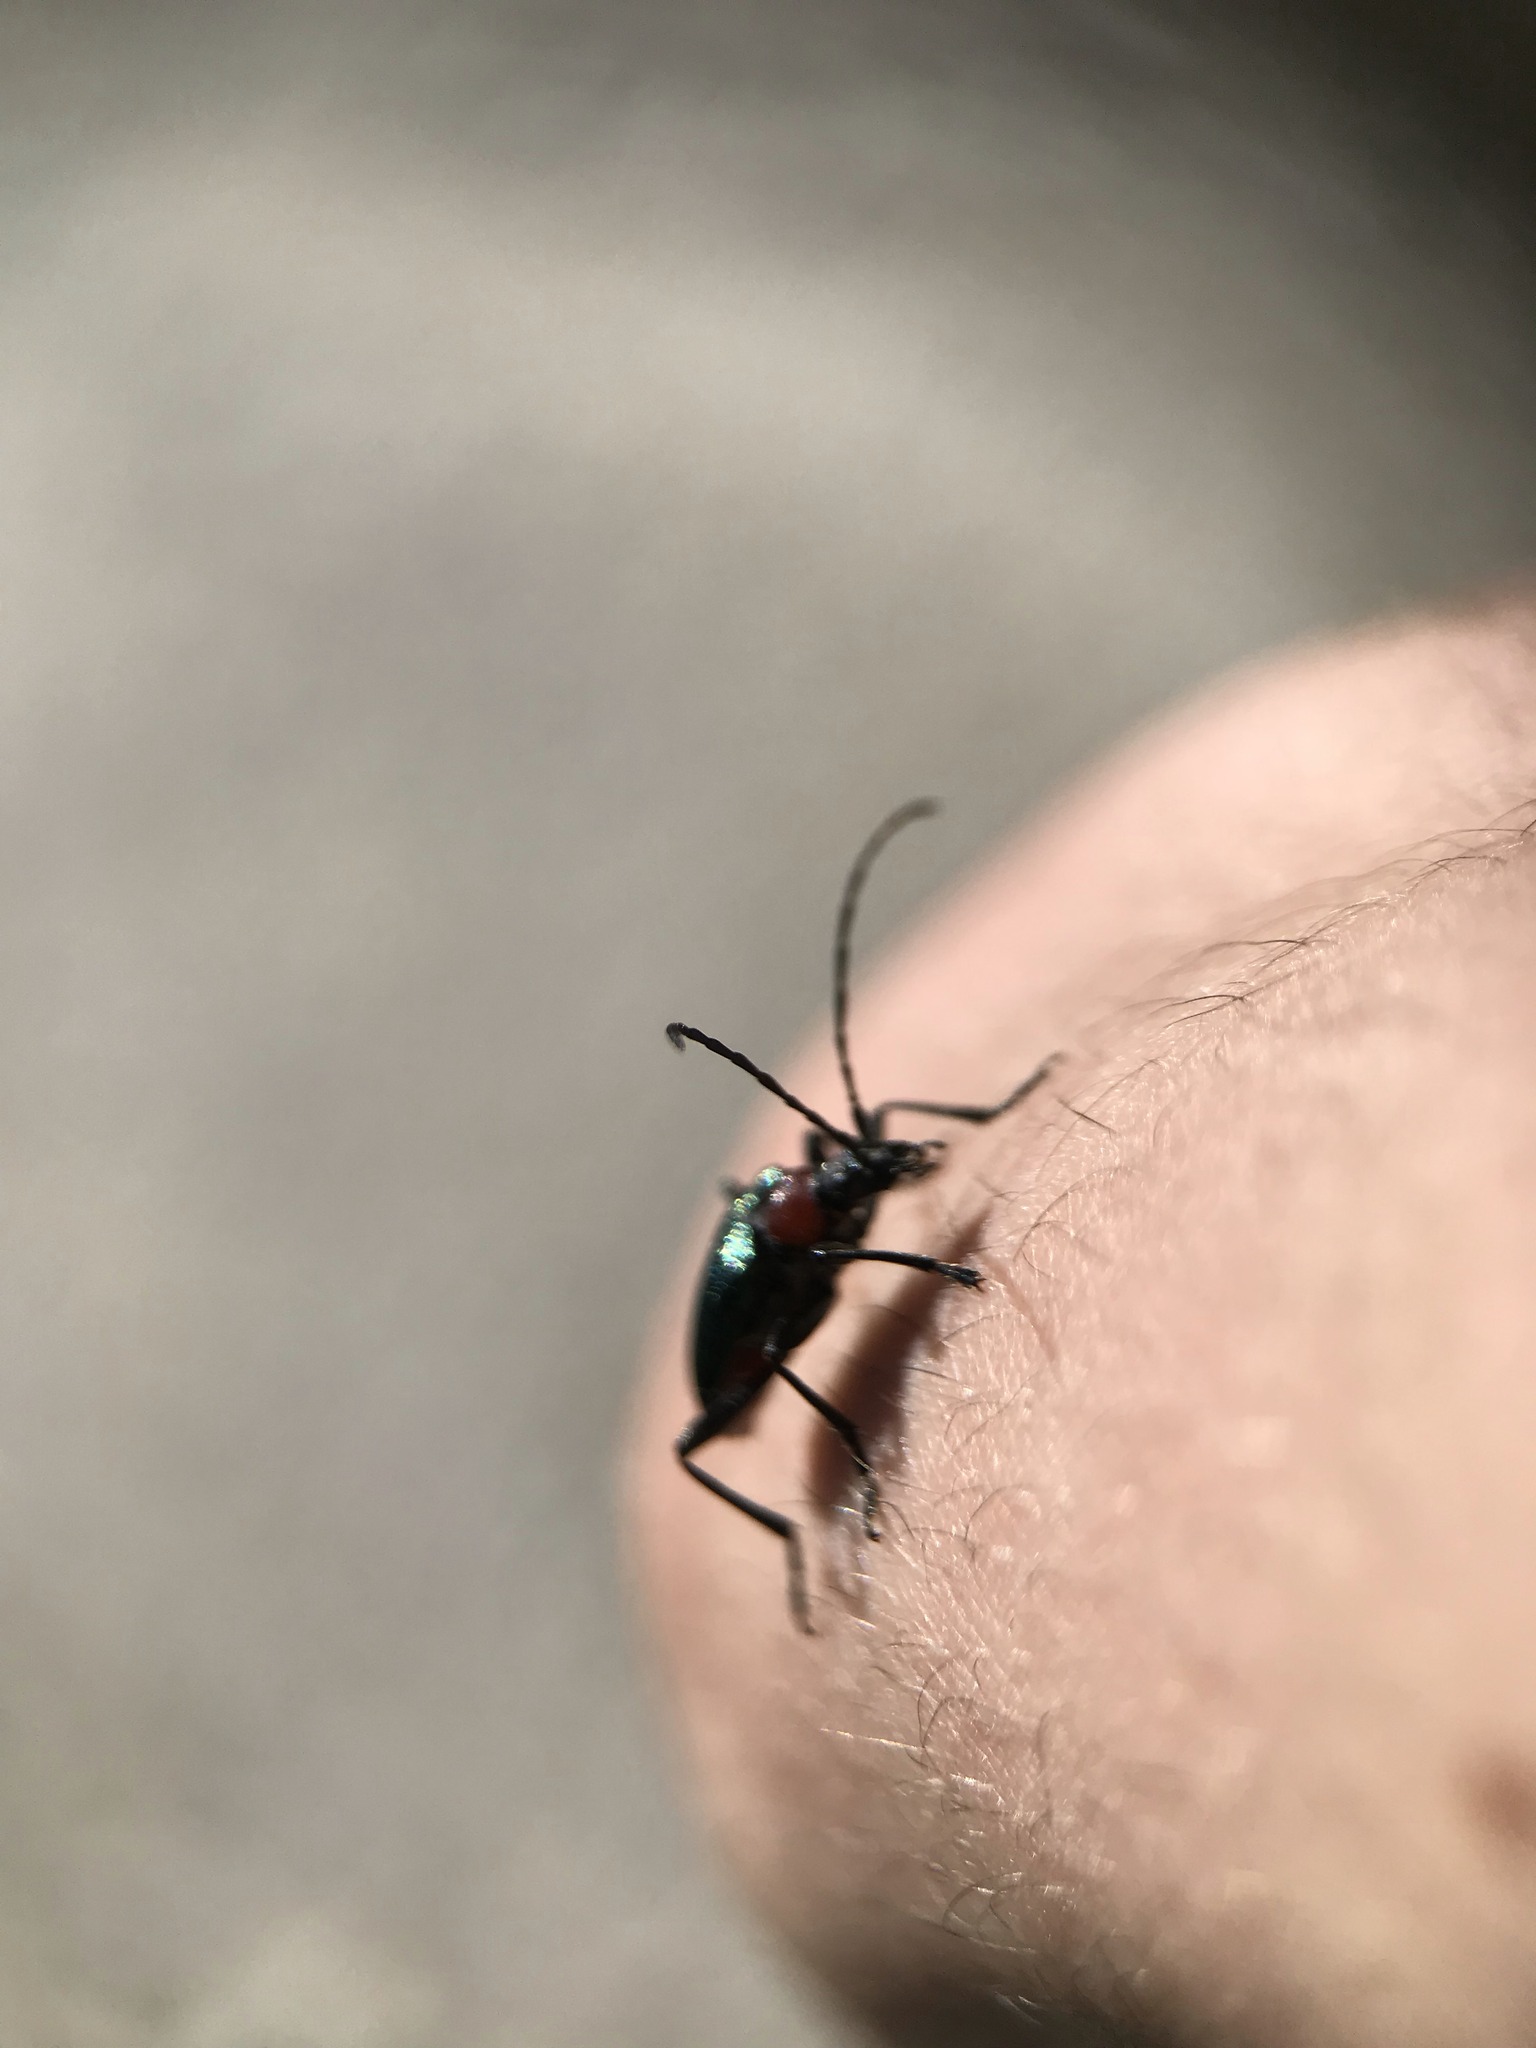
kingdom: Animalia
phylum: Arthropoda
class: Insecta
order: Coleoptera
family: Cerambycidae
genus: Gaurotes
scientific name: Gaurotes virginea
